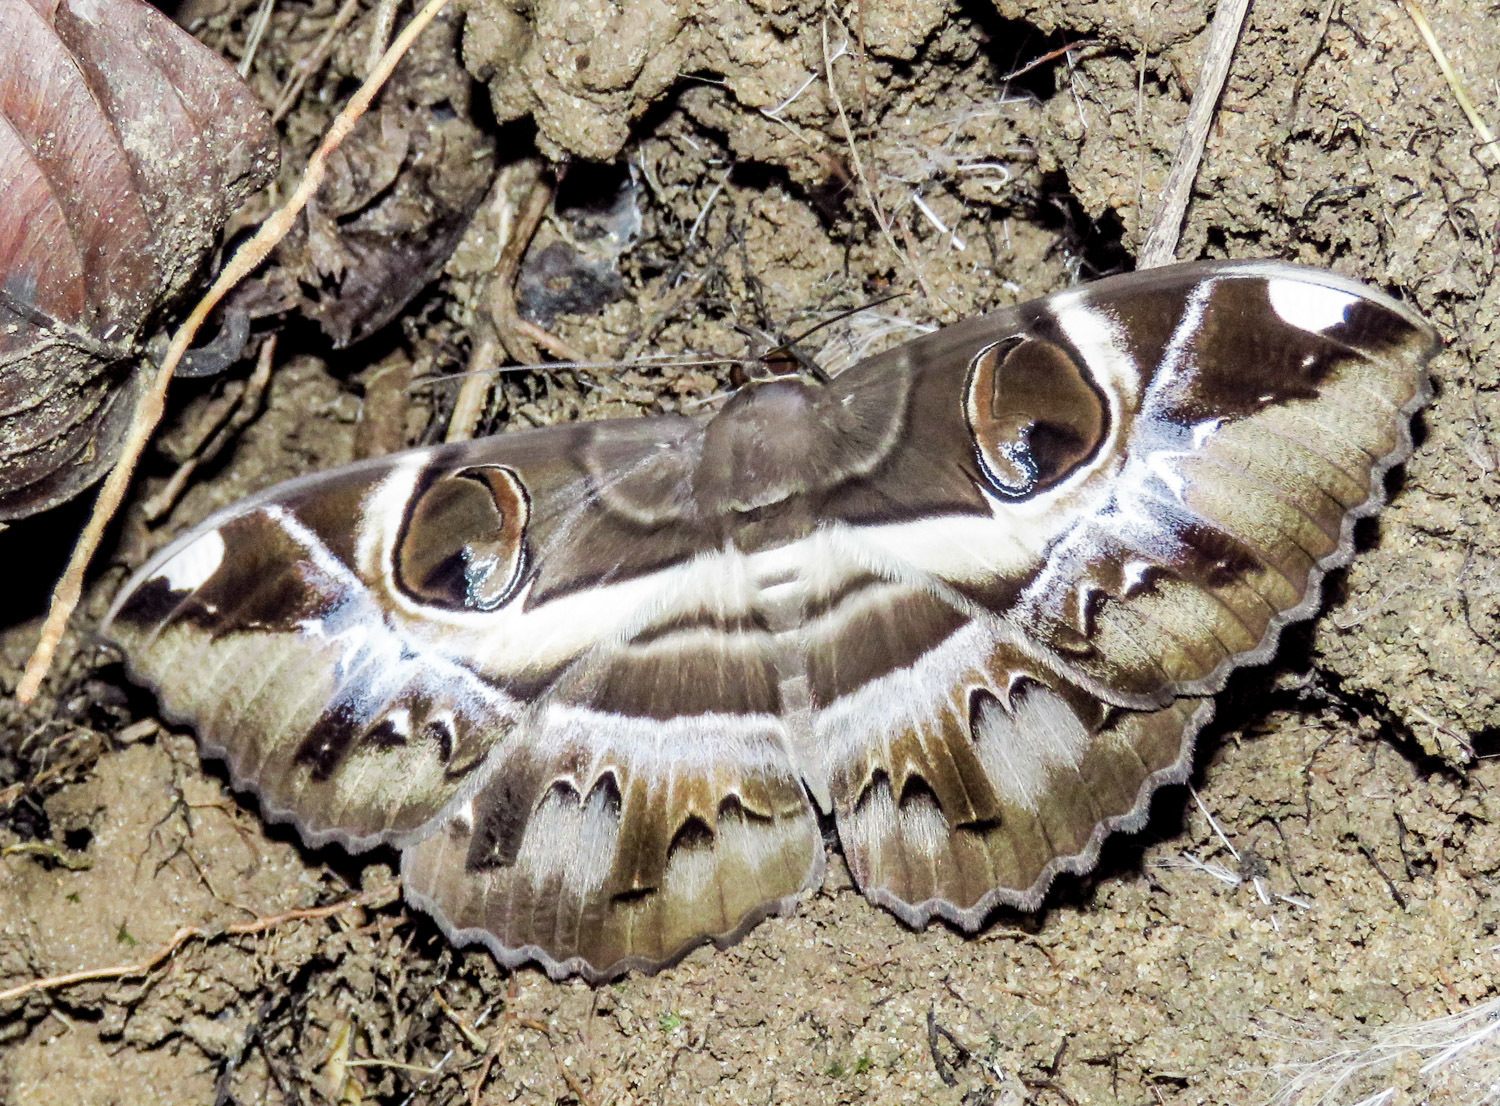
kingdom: Animalia
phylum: Arthropoda
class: Insecta
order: Lepidoptera
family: Erebidae
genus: Erebus
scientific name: Erebus ephesperis
